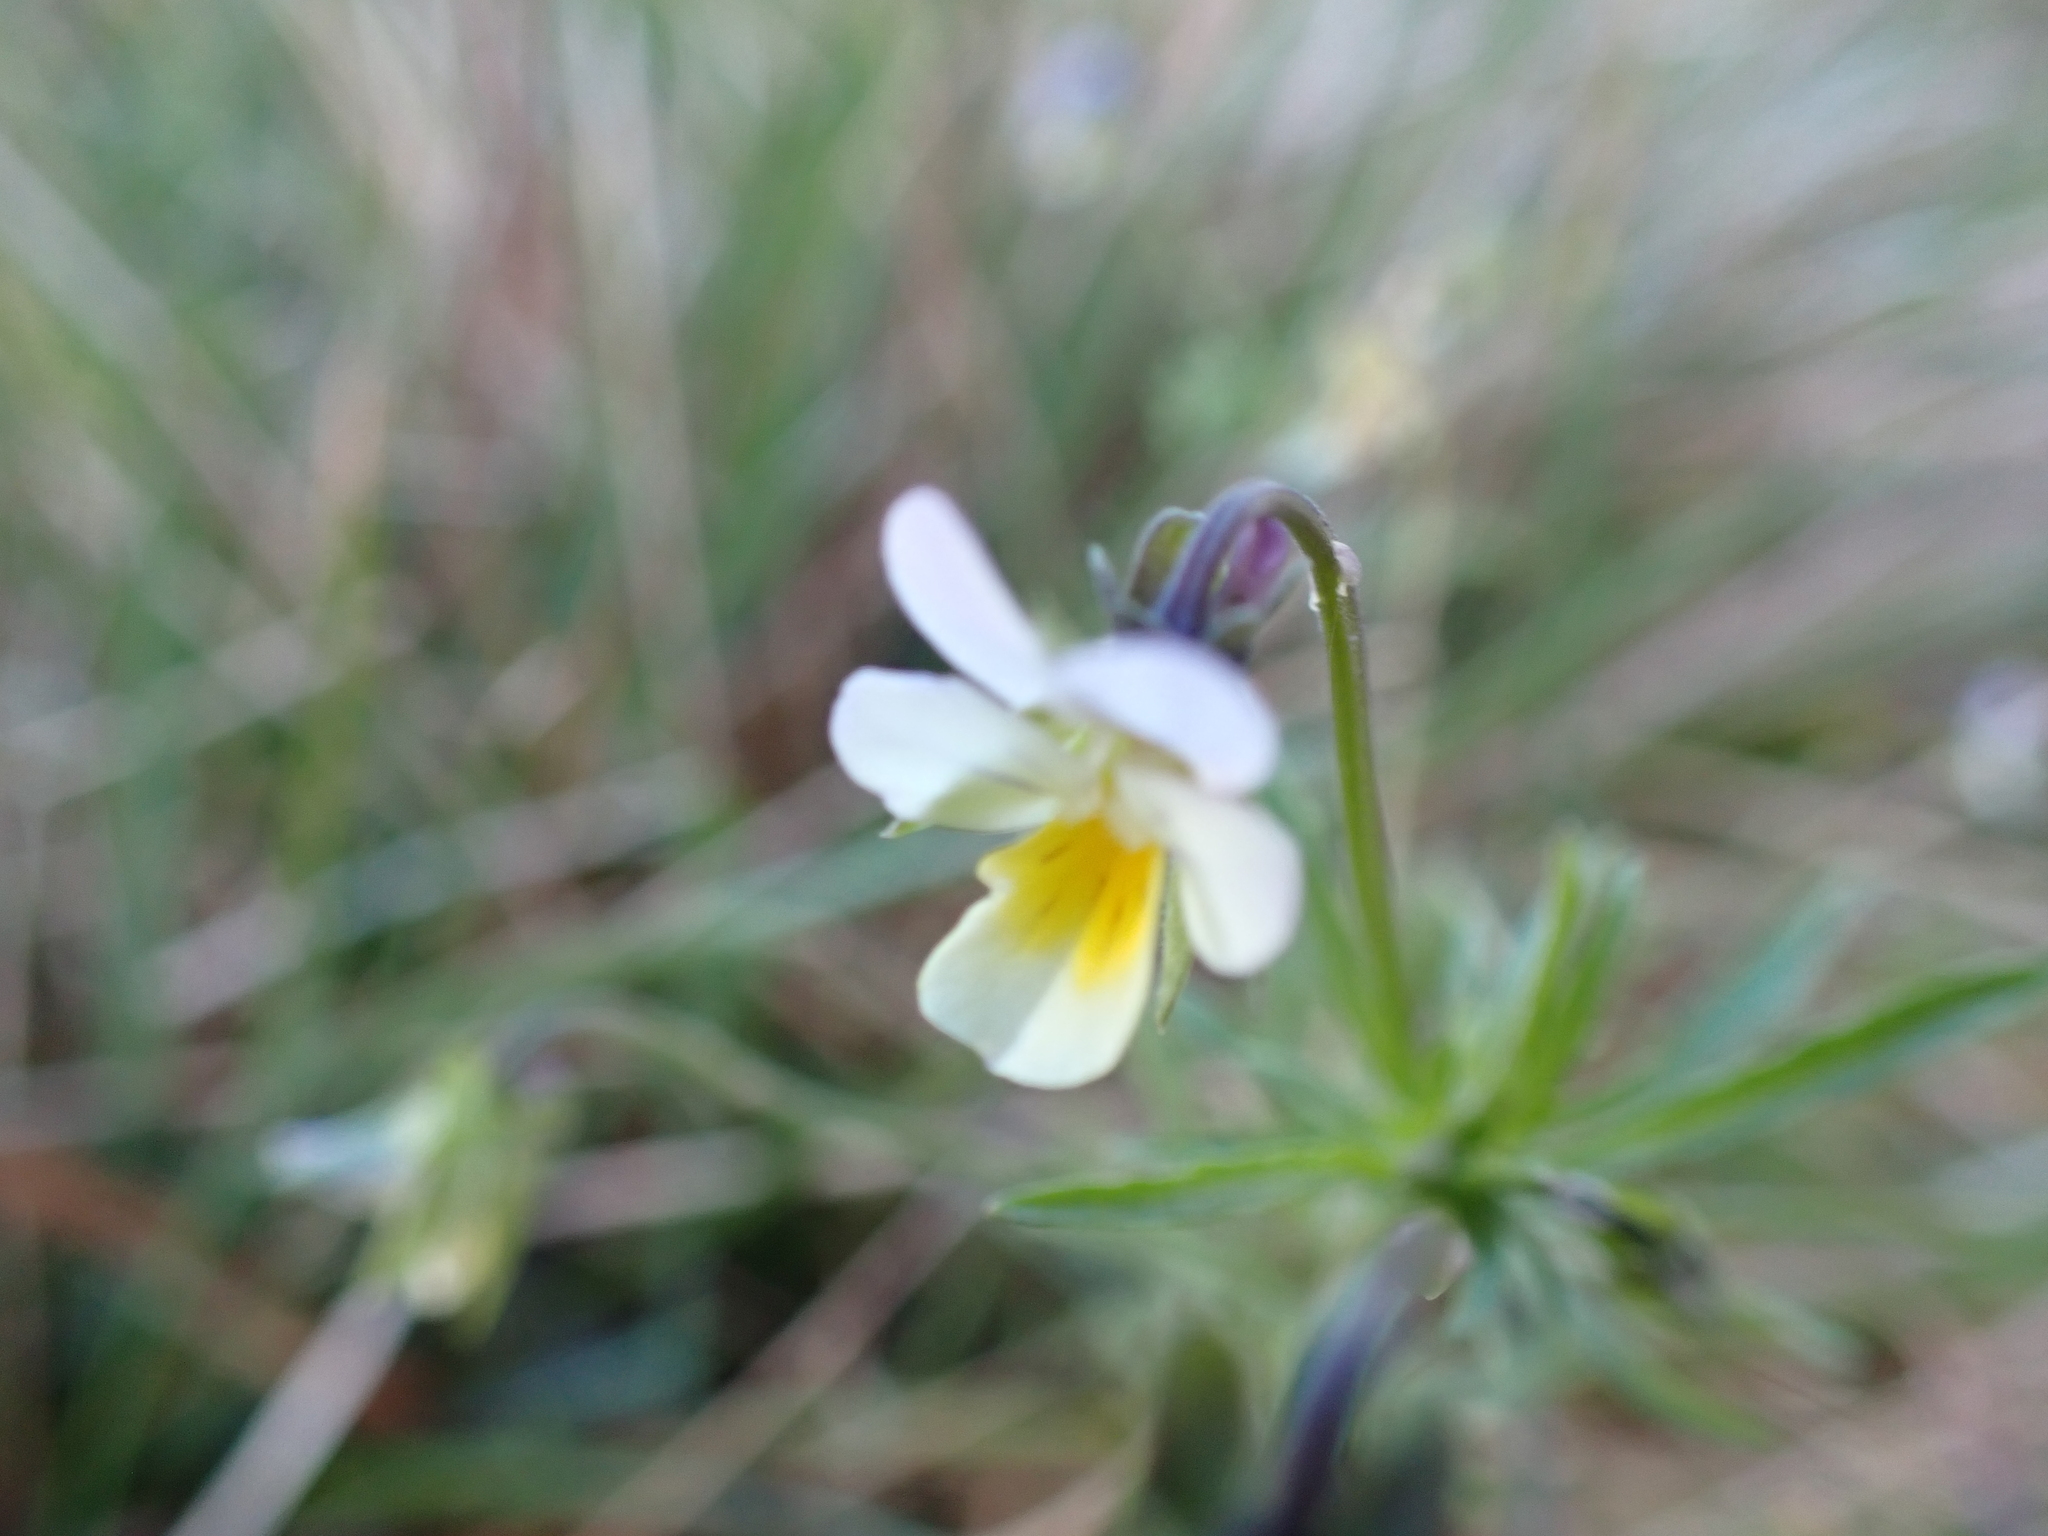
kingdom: Plantae
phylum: Tracheophyta
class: Magnoliopsida
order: Malpighiales
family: Violaceae
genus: Viola
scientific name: Viola arvensis
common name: Field pansy
